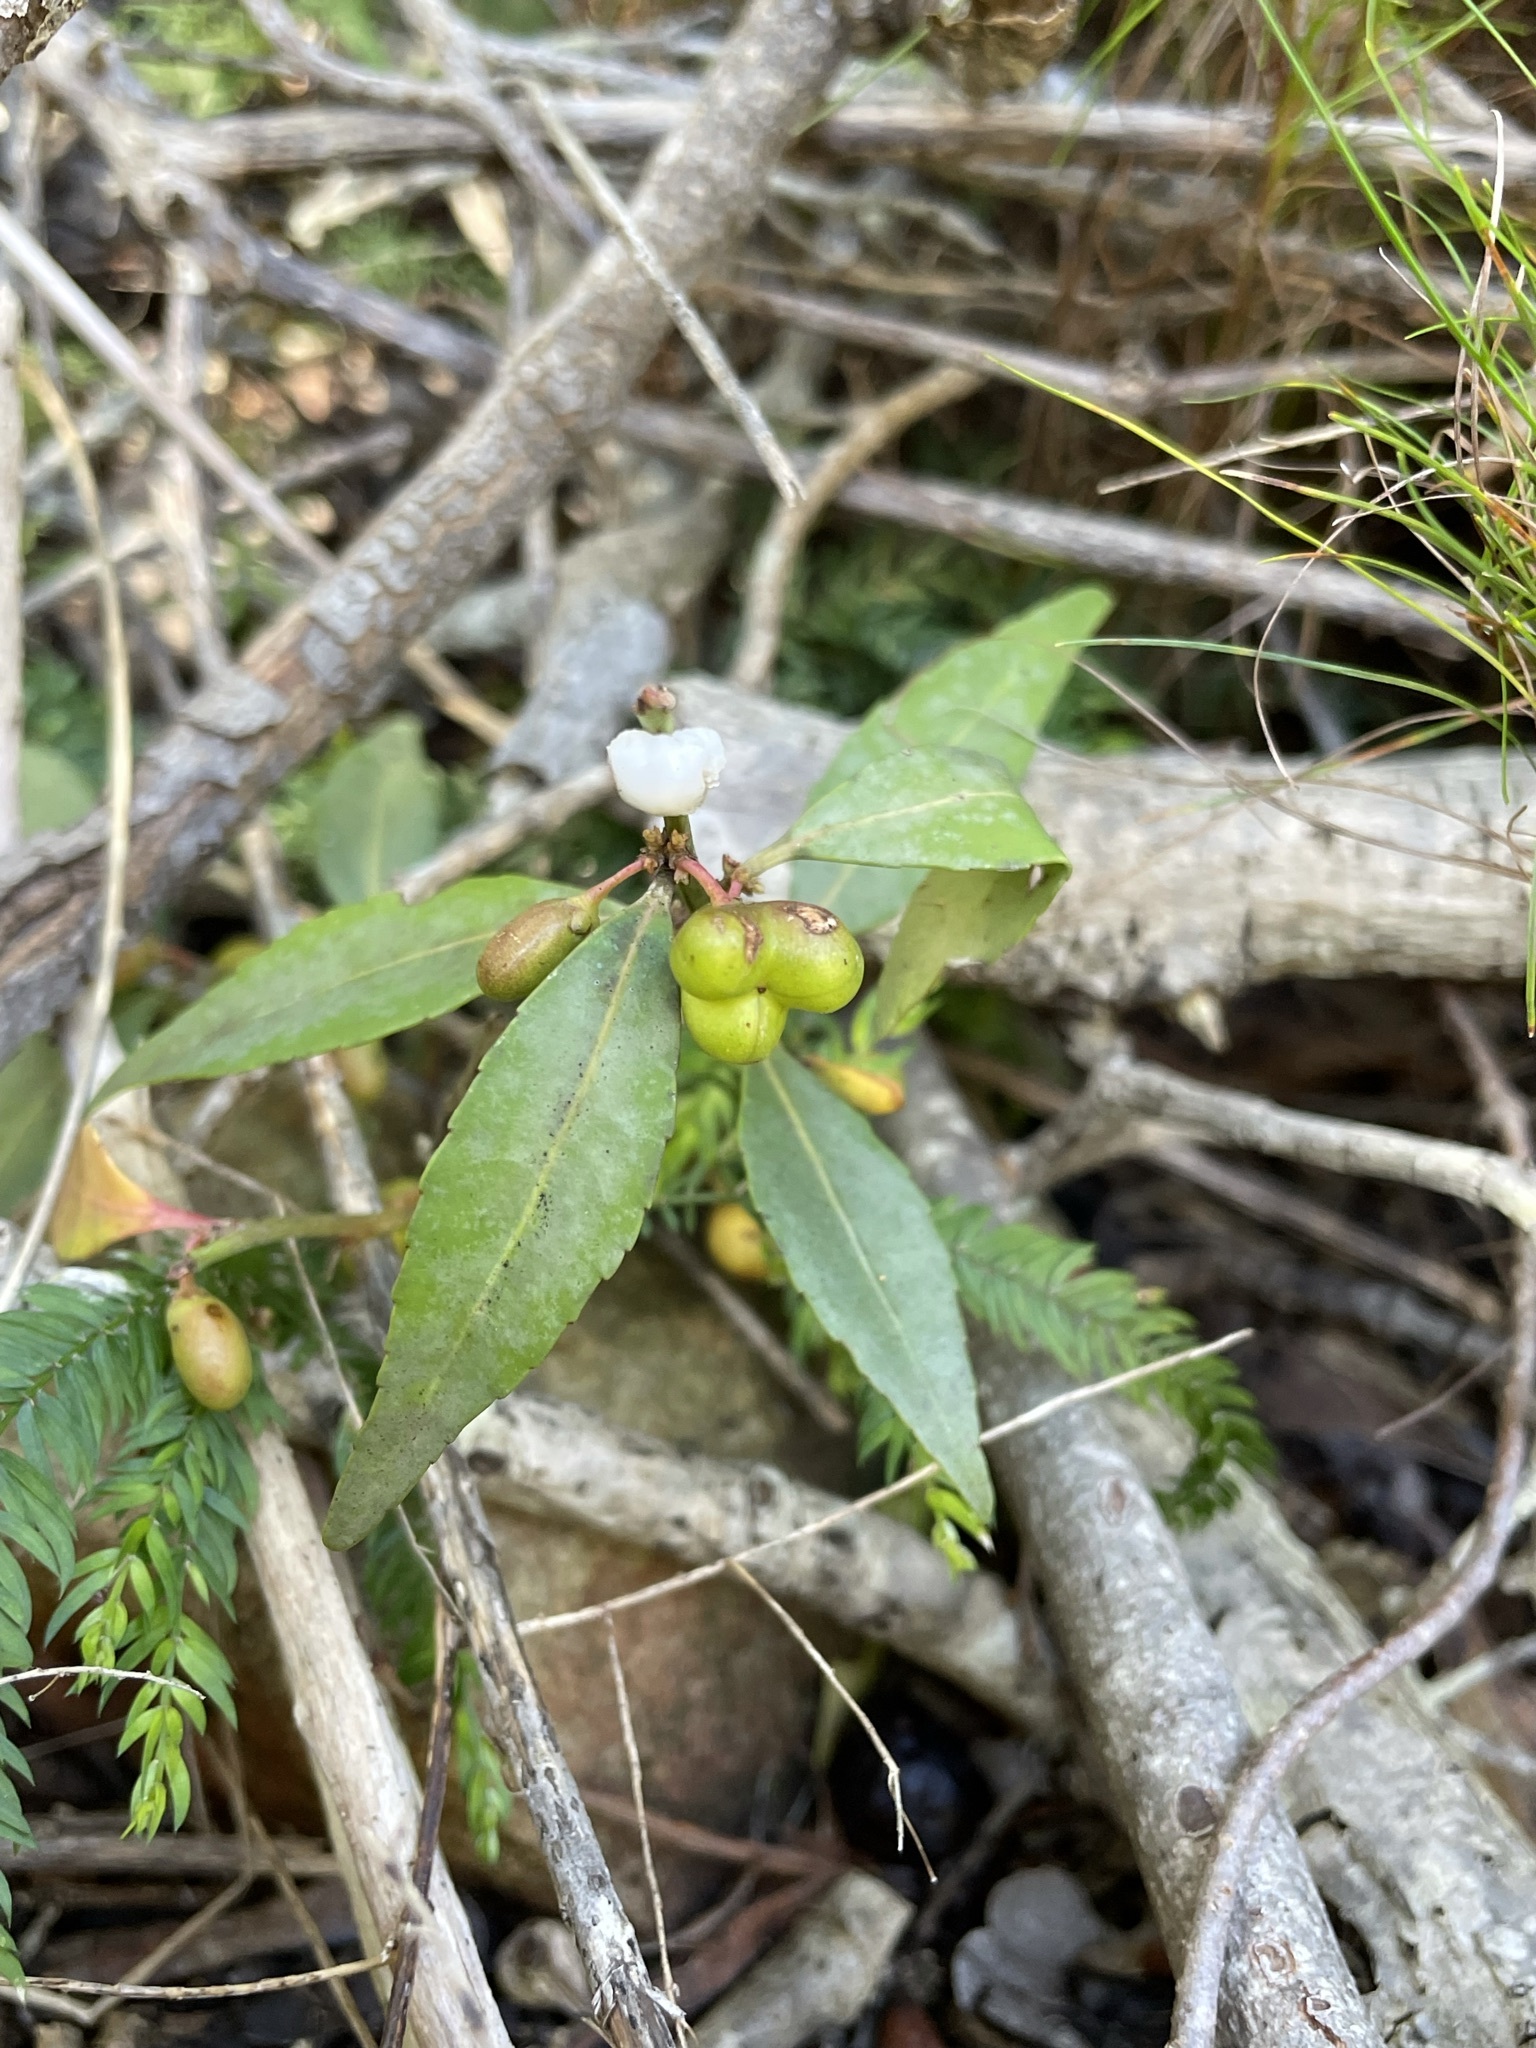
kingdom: Plantae
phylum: Tracheophyta
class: Magnoliopsida
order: Celastrales
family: Celastraceae
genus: Gymnosporia
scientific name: Gymnosporia acuminata
